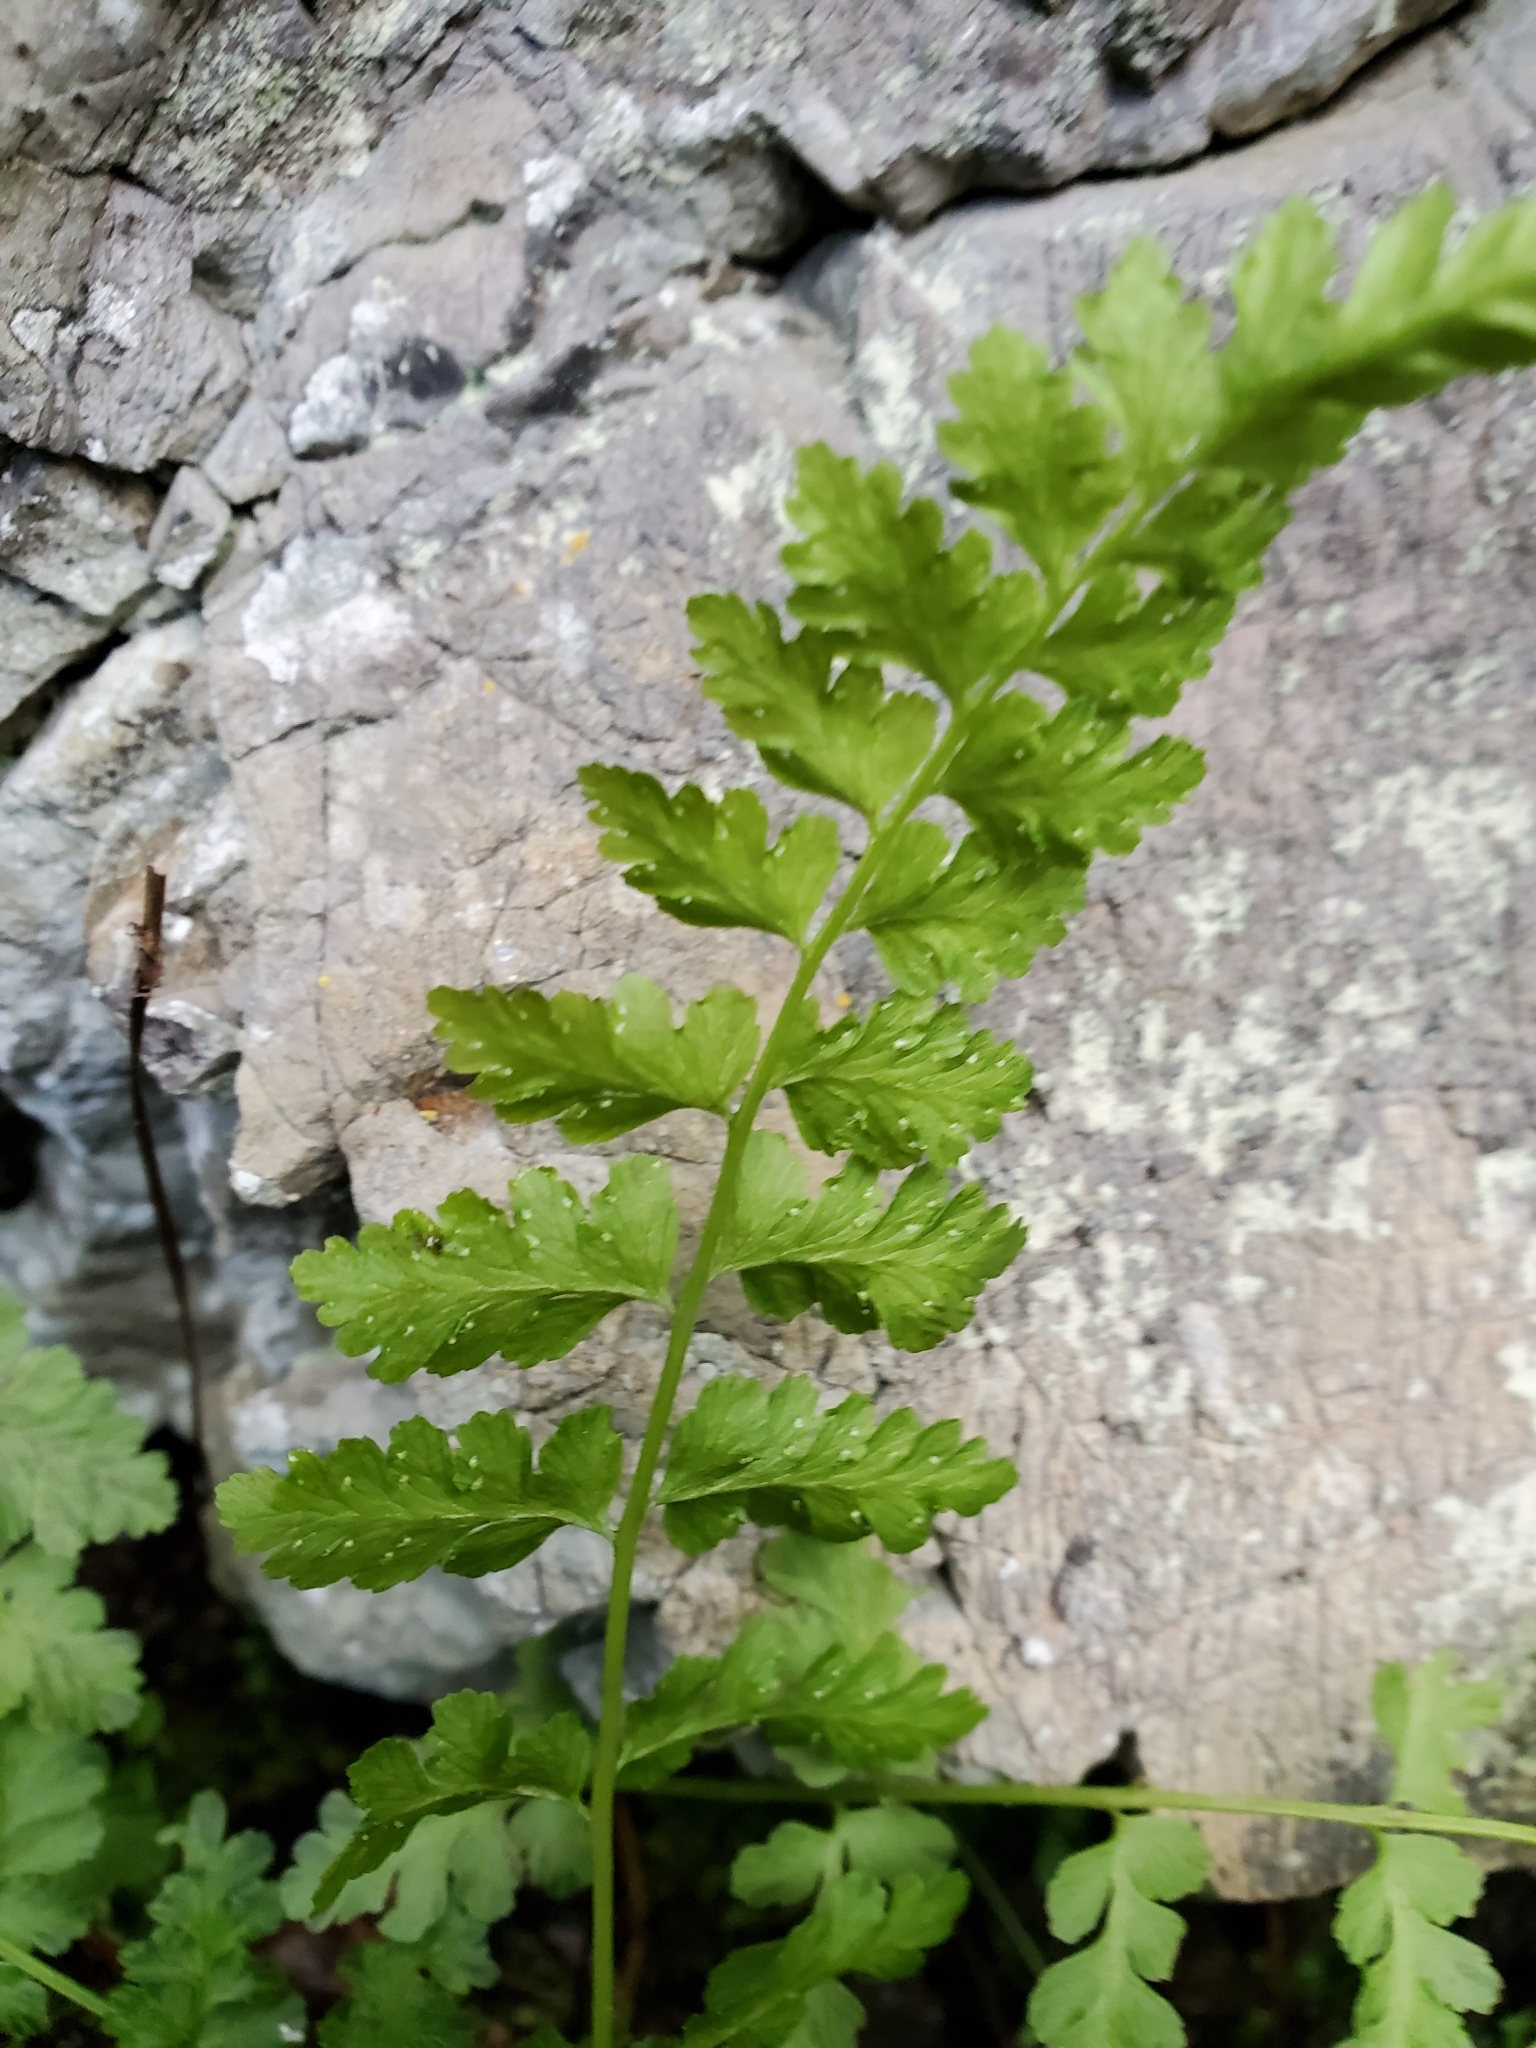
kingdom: Plantae
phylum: Tracheophyta
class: Polypodiopsida
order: Polypodiales
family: Cystopteridaceae
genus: Cystopteris
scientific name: Cystopteris fragilis
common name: Brittle bladder fern
